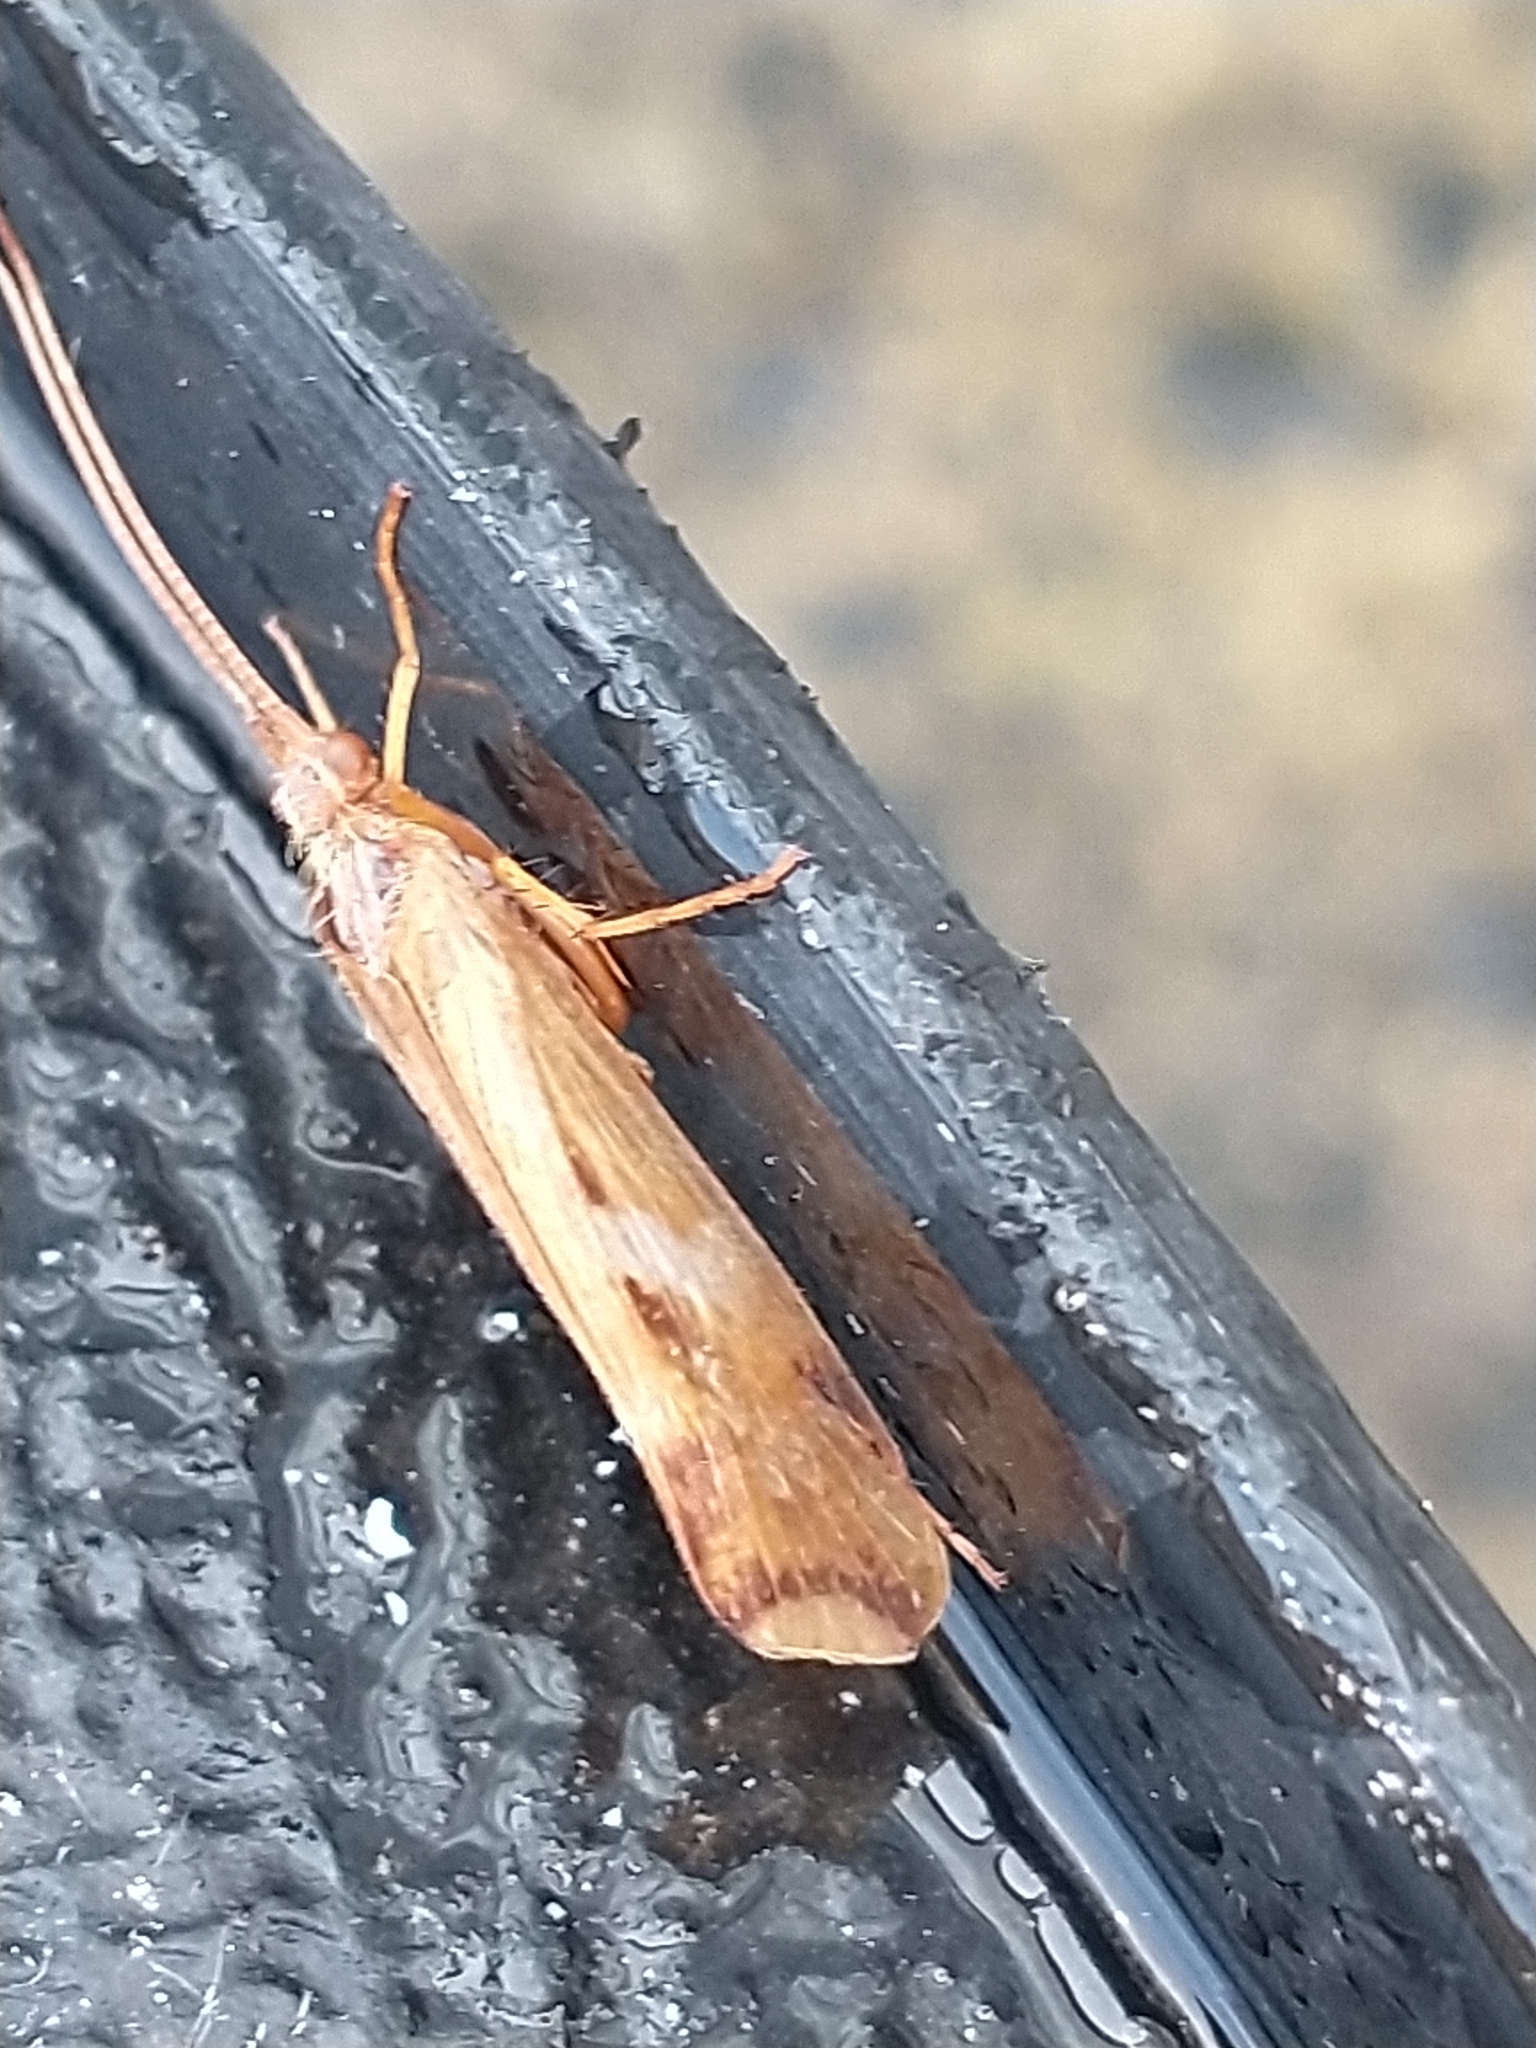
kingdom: Animalia
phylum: Arthropoda
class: Insecta
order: Trichoptera
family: Limnephilidae
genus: Limnephilus
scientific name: Limnephilus lunatus
